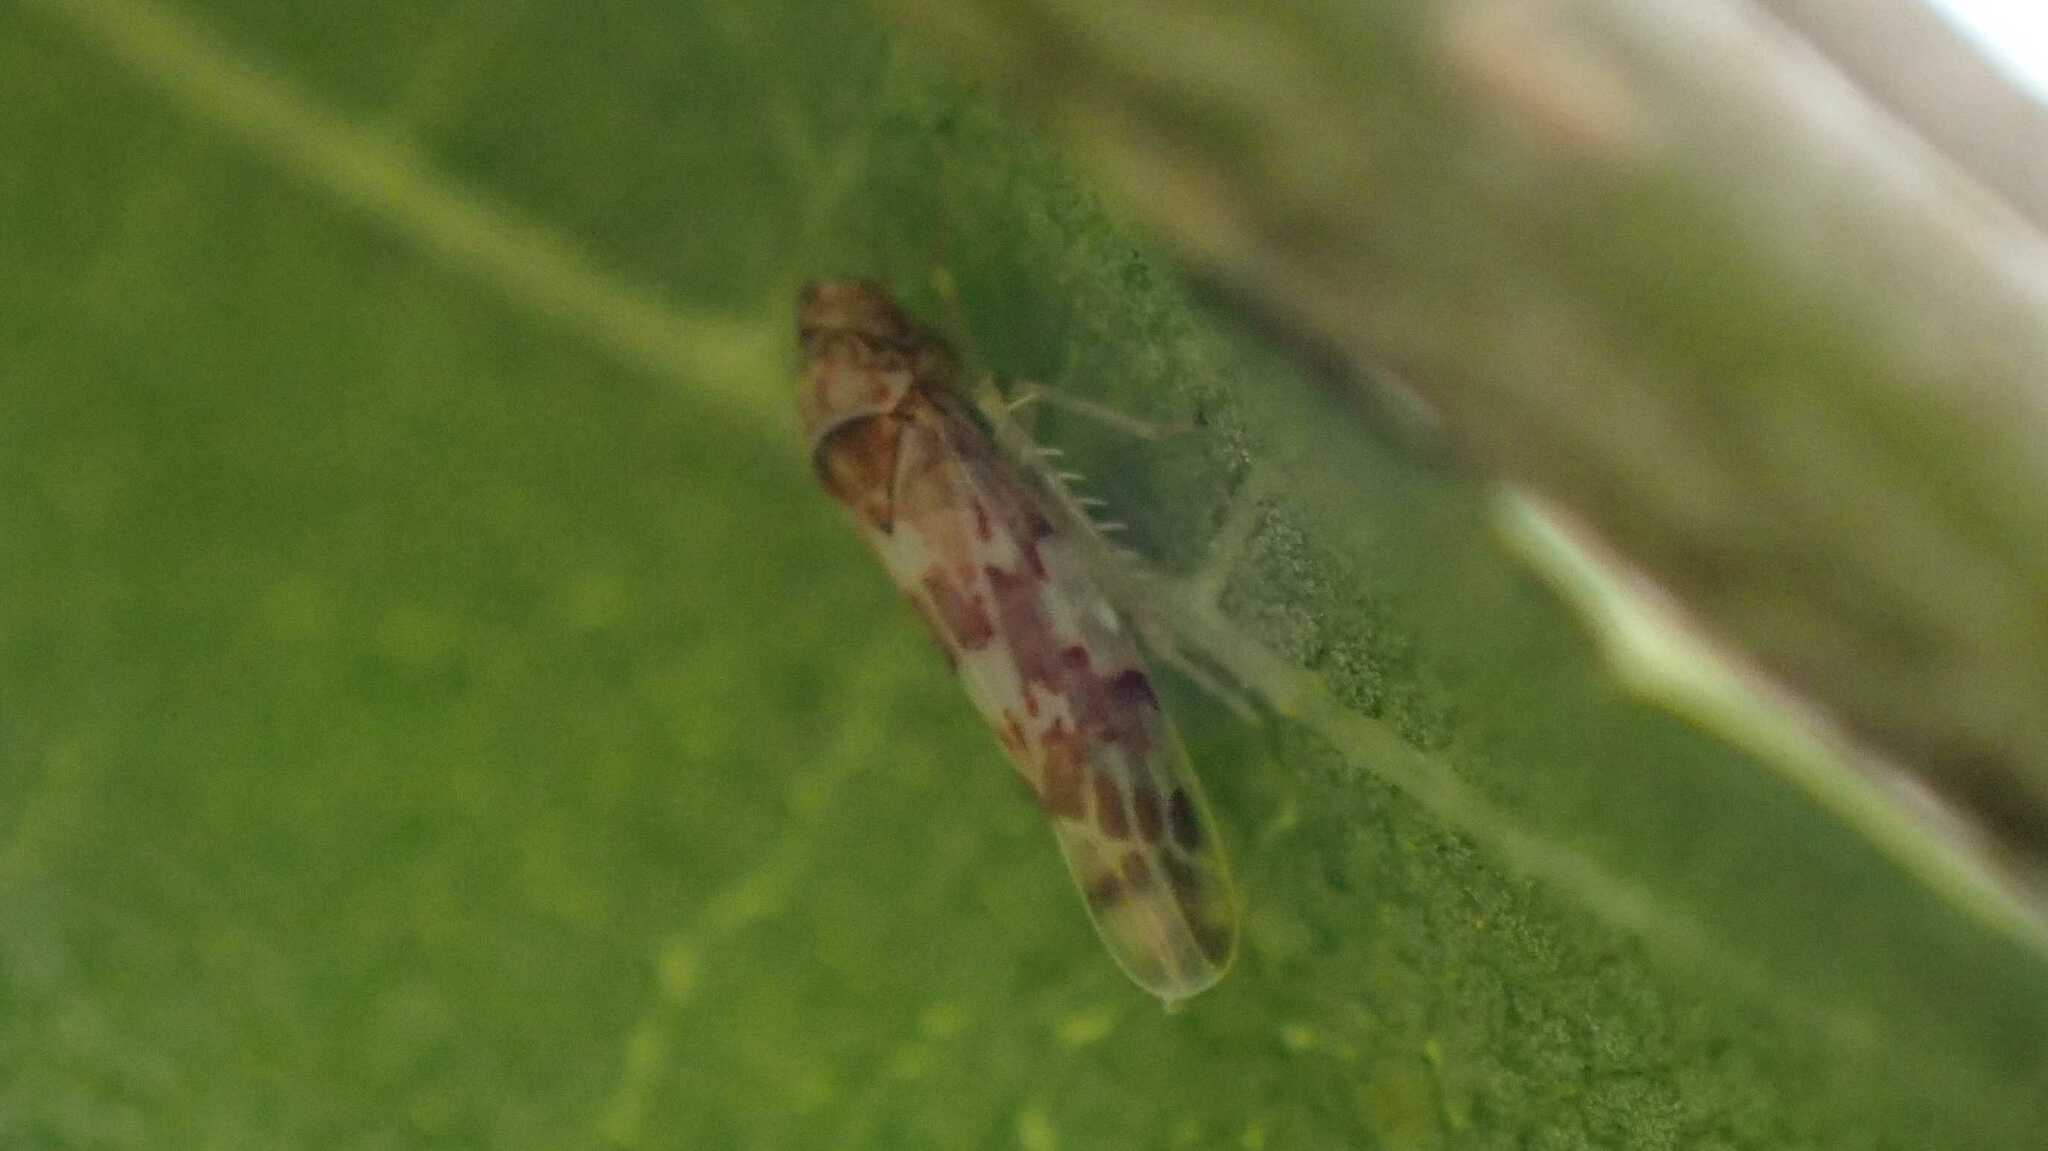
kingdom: Animalia
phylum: Arthropoda
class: Insecta
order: Hemiptera
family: Cicadellidae
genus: Tautoneura
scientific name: Tautoneura polymitusa
